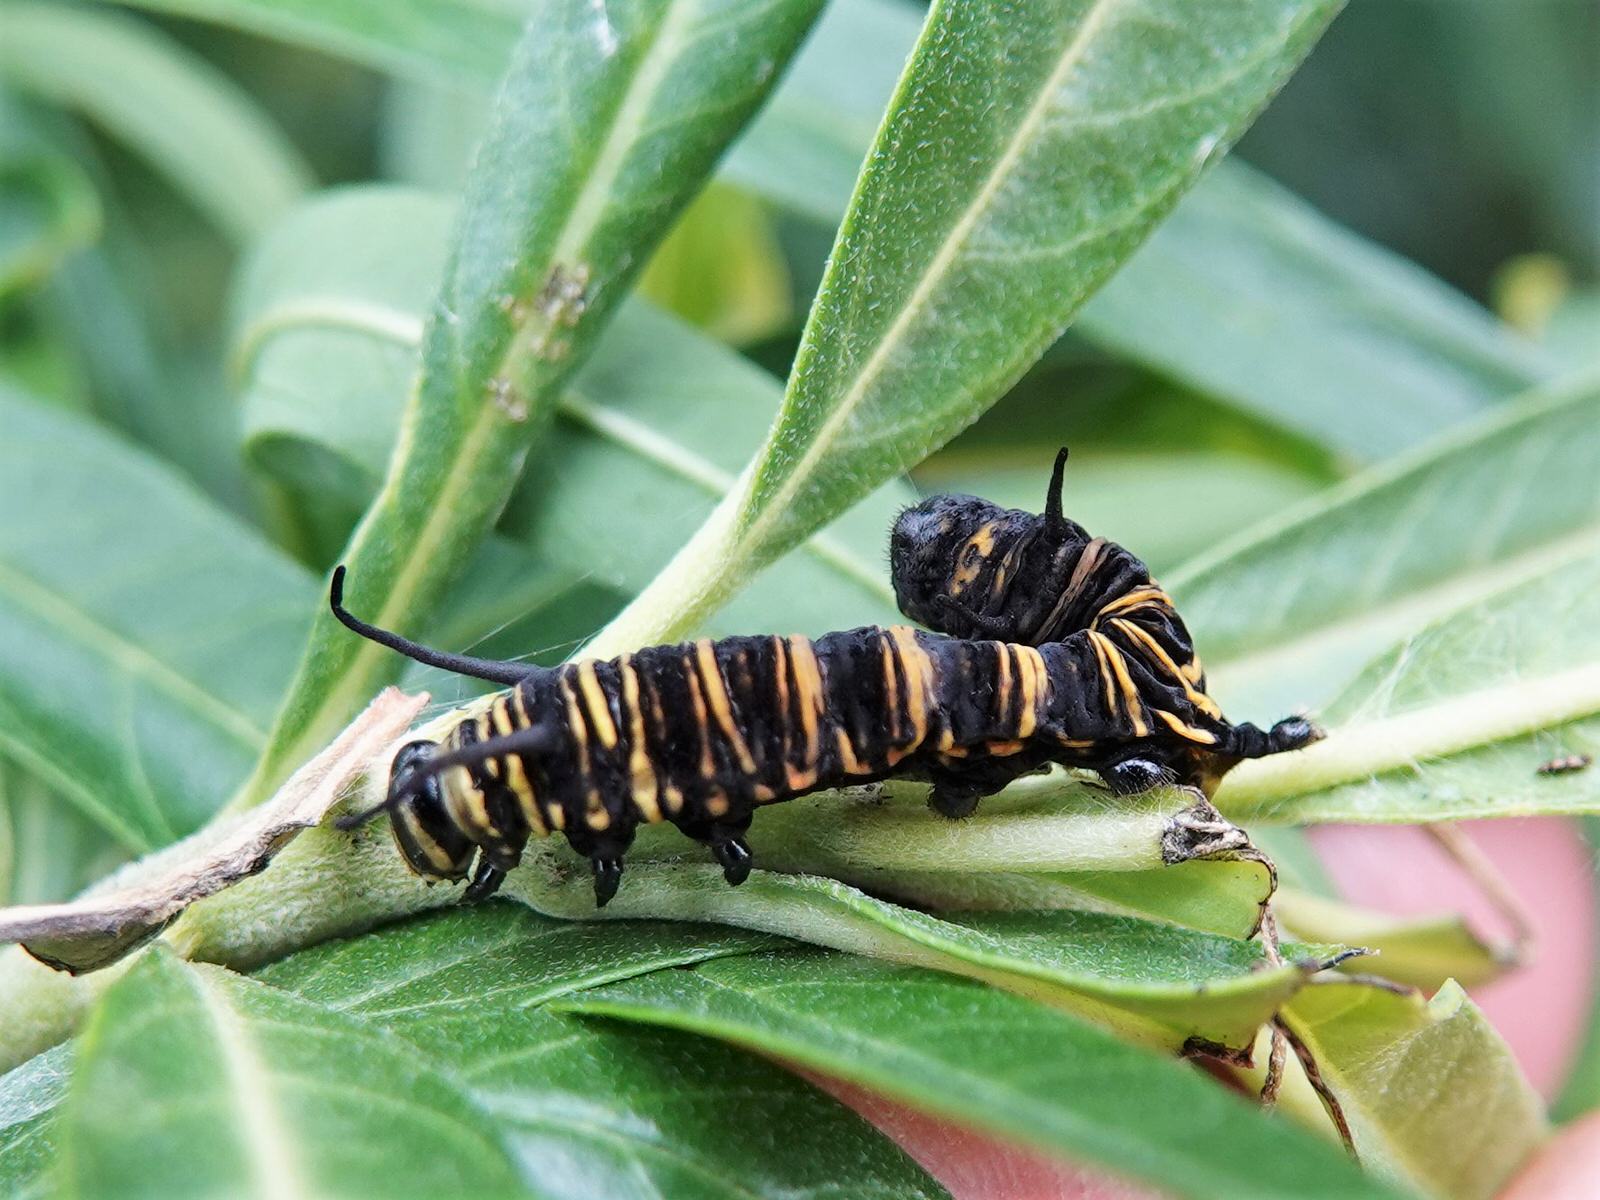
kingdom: Animalia
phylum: Arthropoda
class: Insecta
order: Lepidoptera
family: Nymphalidae
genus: Danaus
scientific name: Danaus plexippus
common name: Monarch
